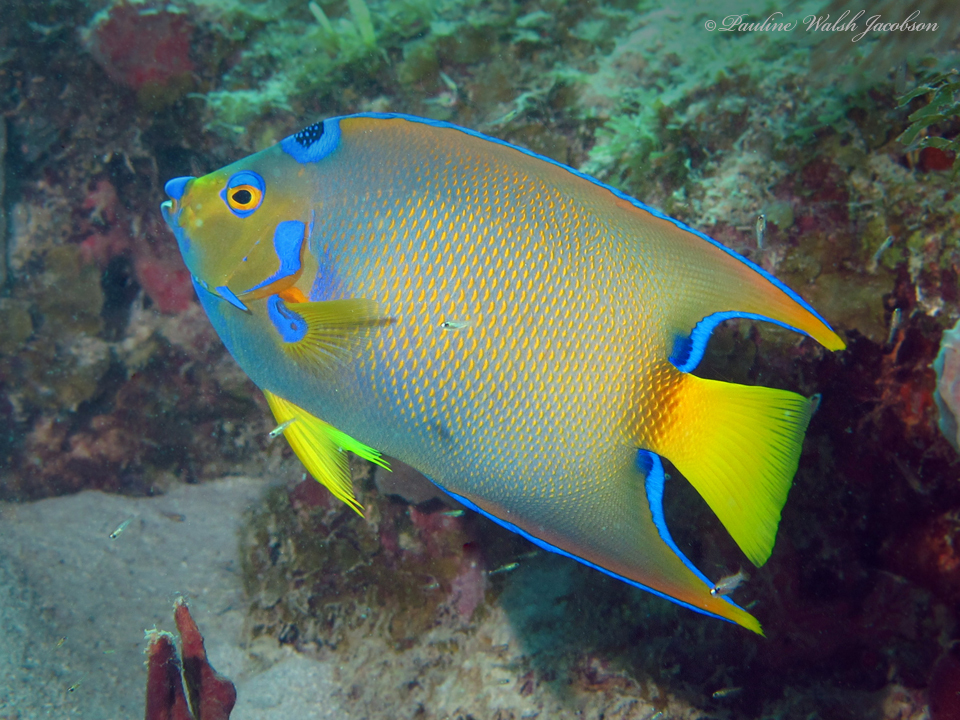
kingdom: Animalia
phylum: Chordata
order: Perciformes
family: Pomacanthidae
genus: Holacanthus
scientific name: Holacanthus ciliaris
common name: Queen angelfish
